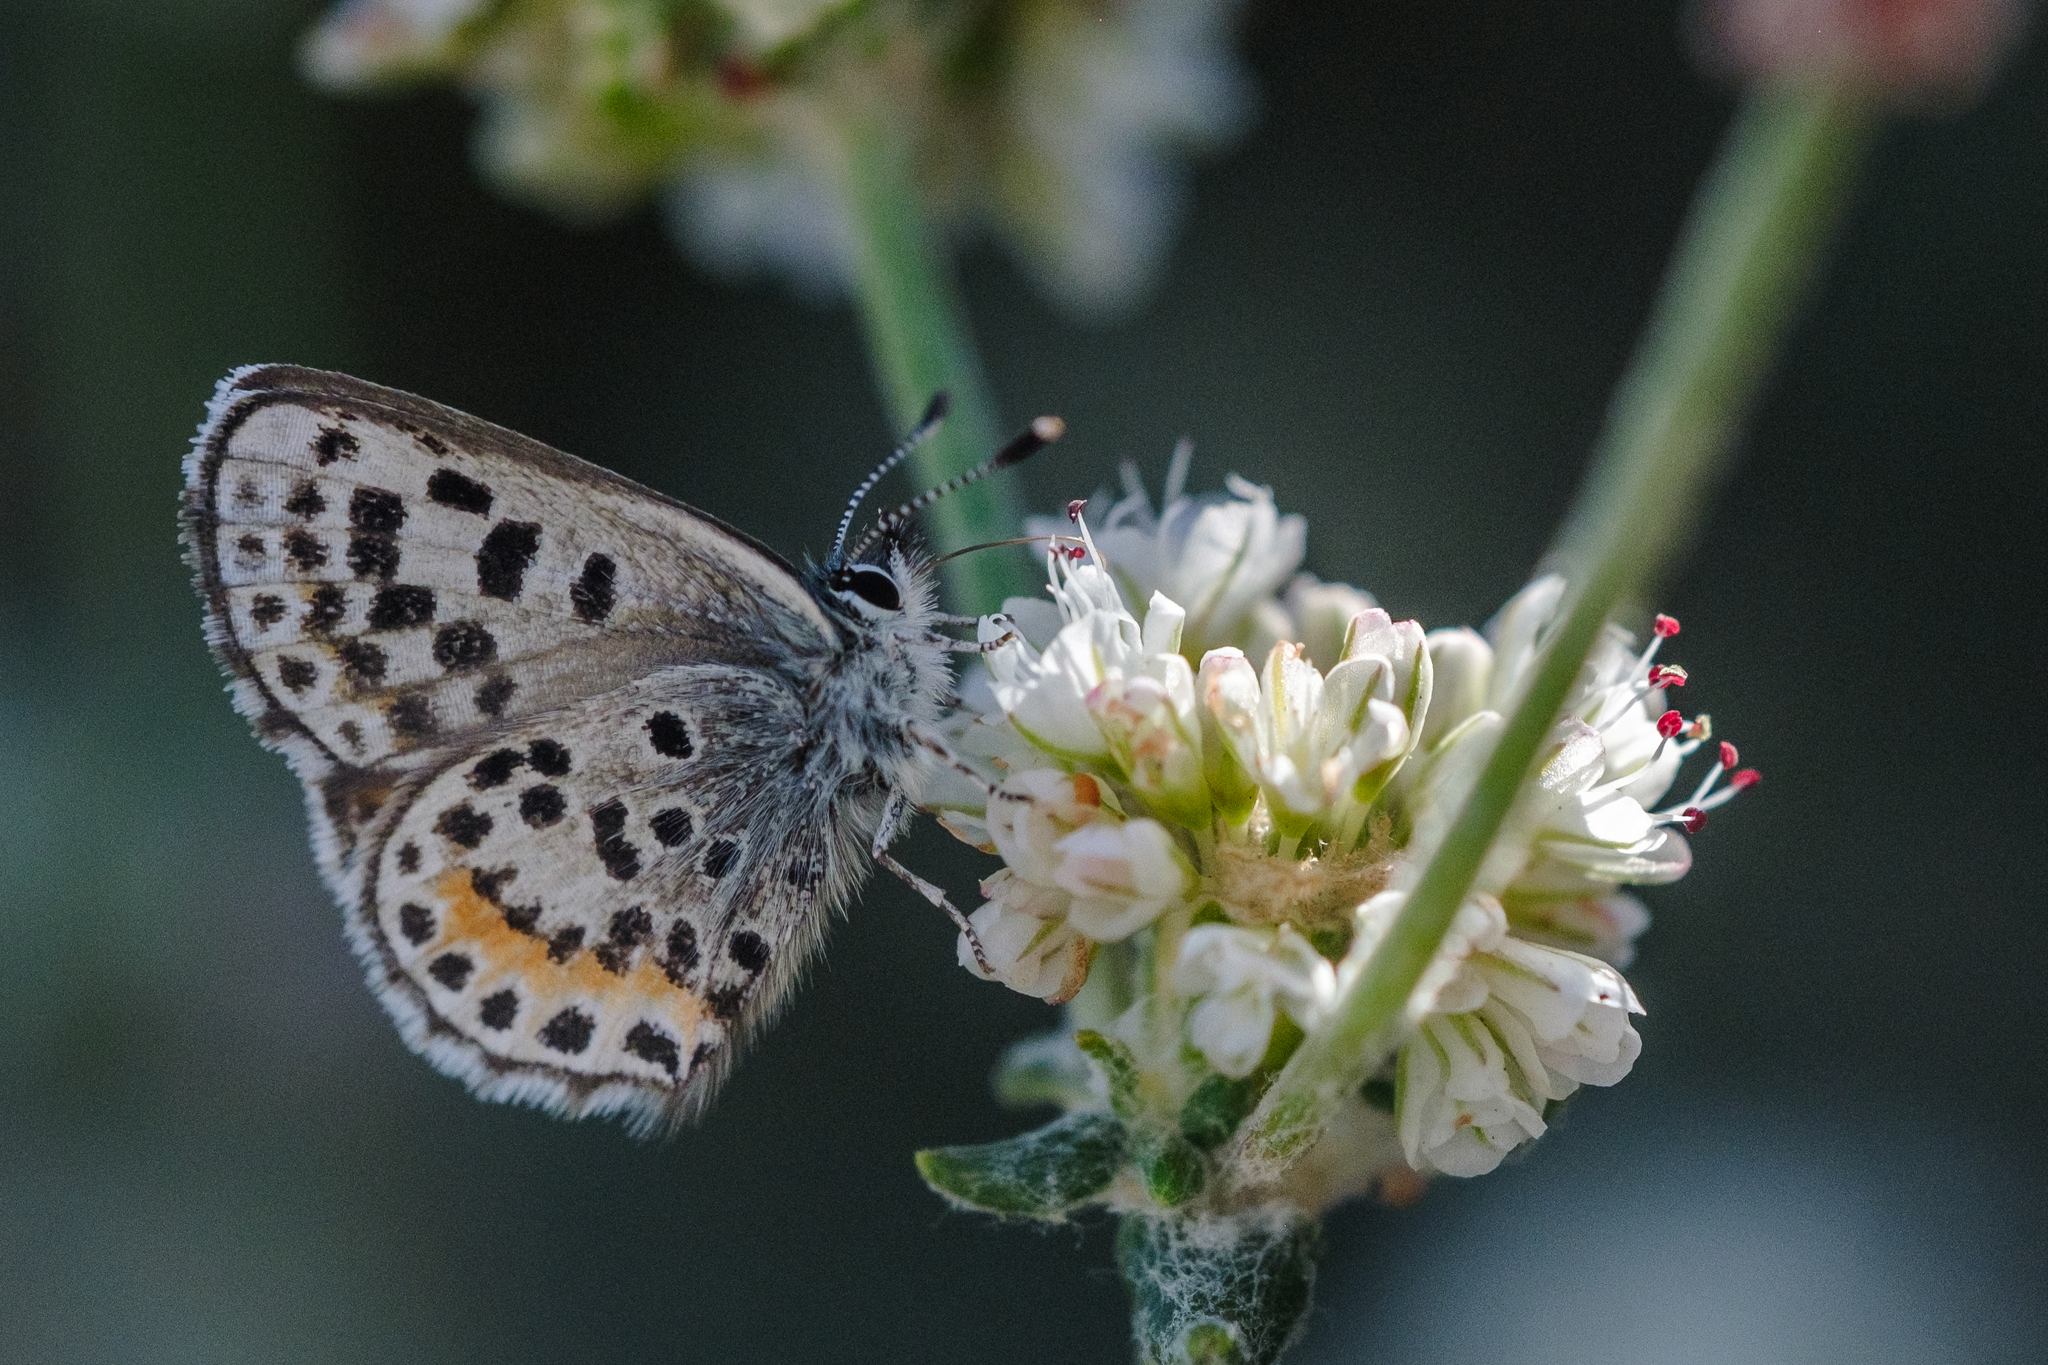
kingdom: Animalia
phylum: Arthropoda
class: Insecta
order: Lepidoptera
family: Lycaenidae
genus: Euphilotes
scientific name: Euphilotes battoides
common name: Square-spotted blue
